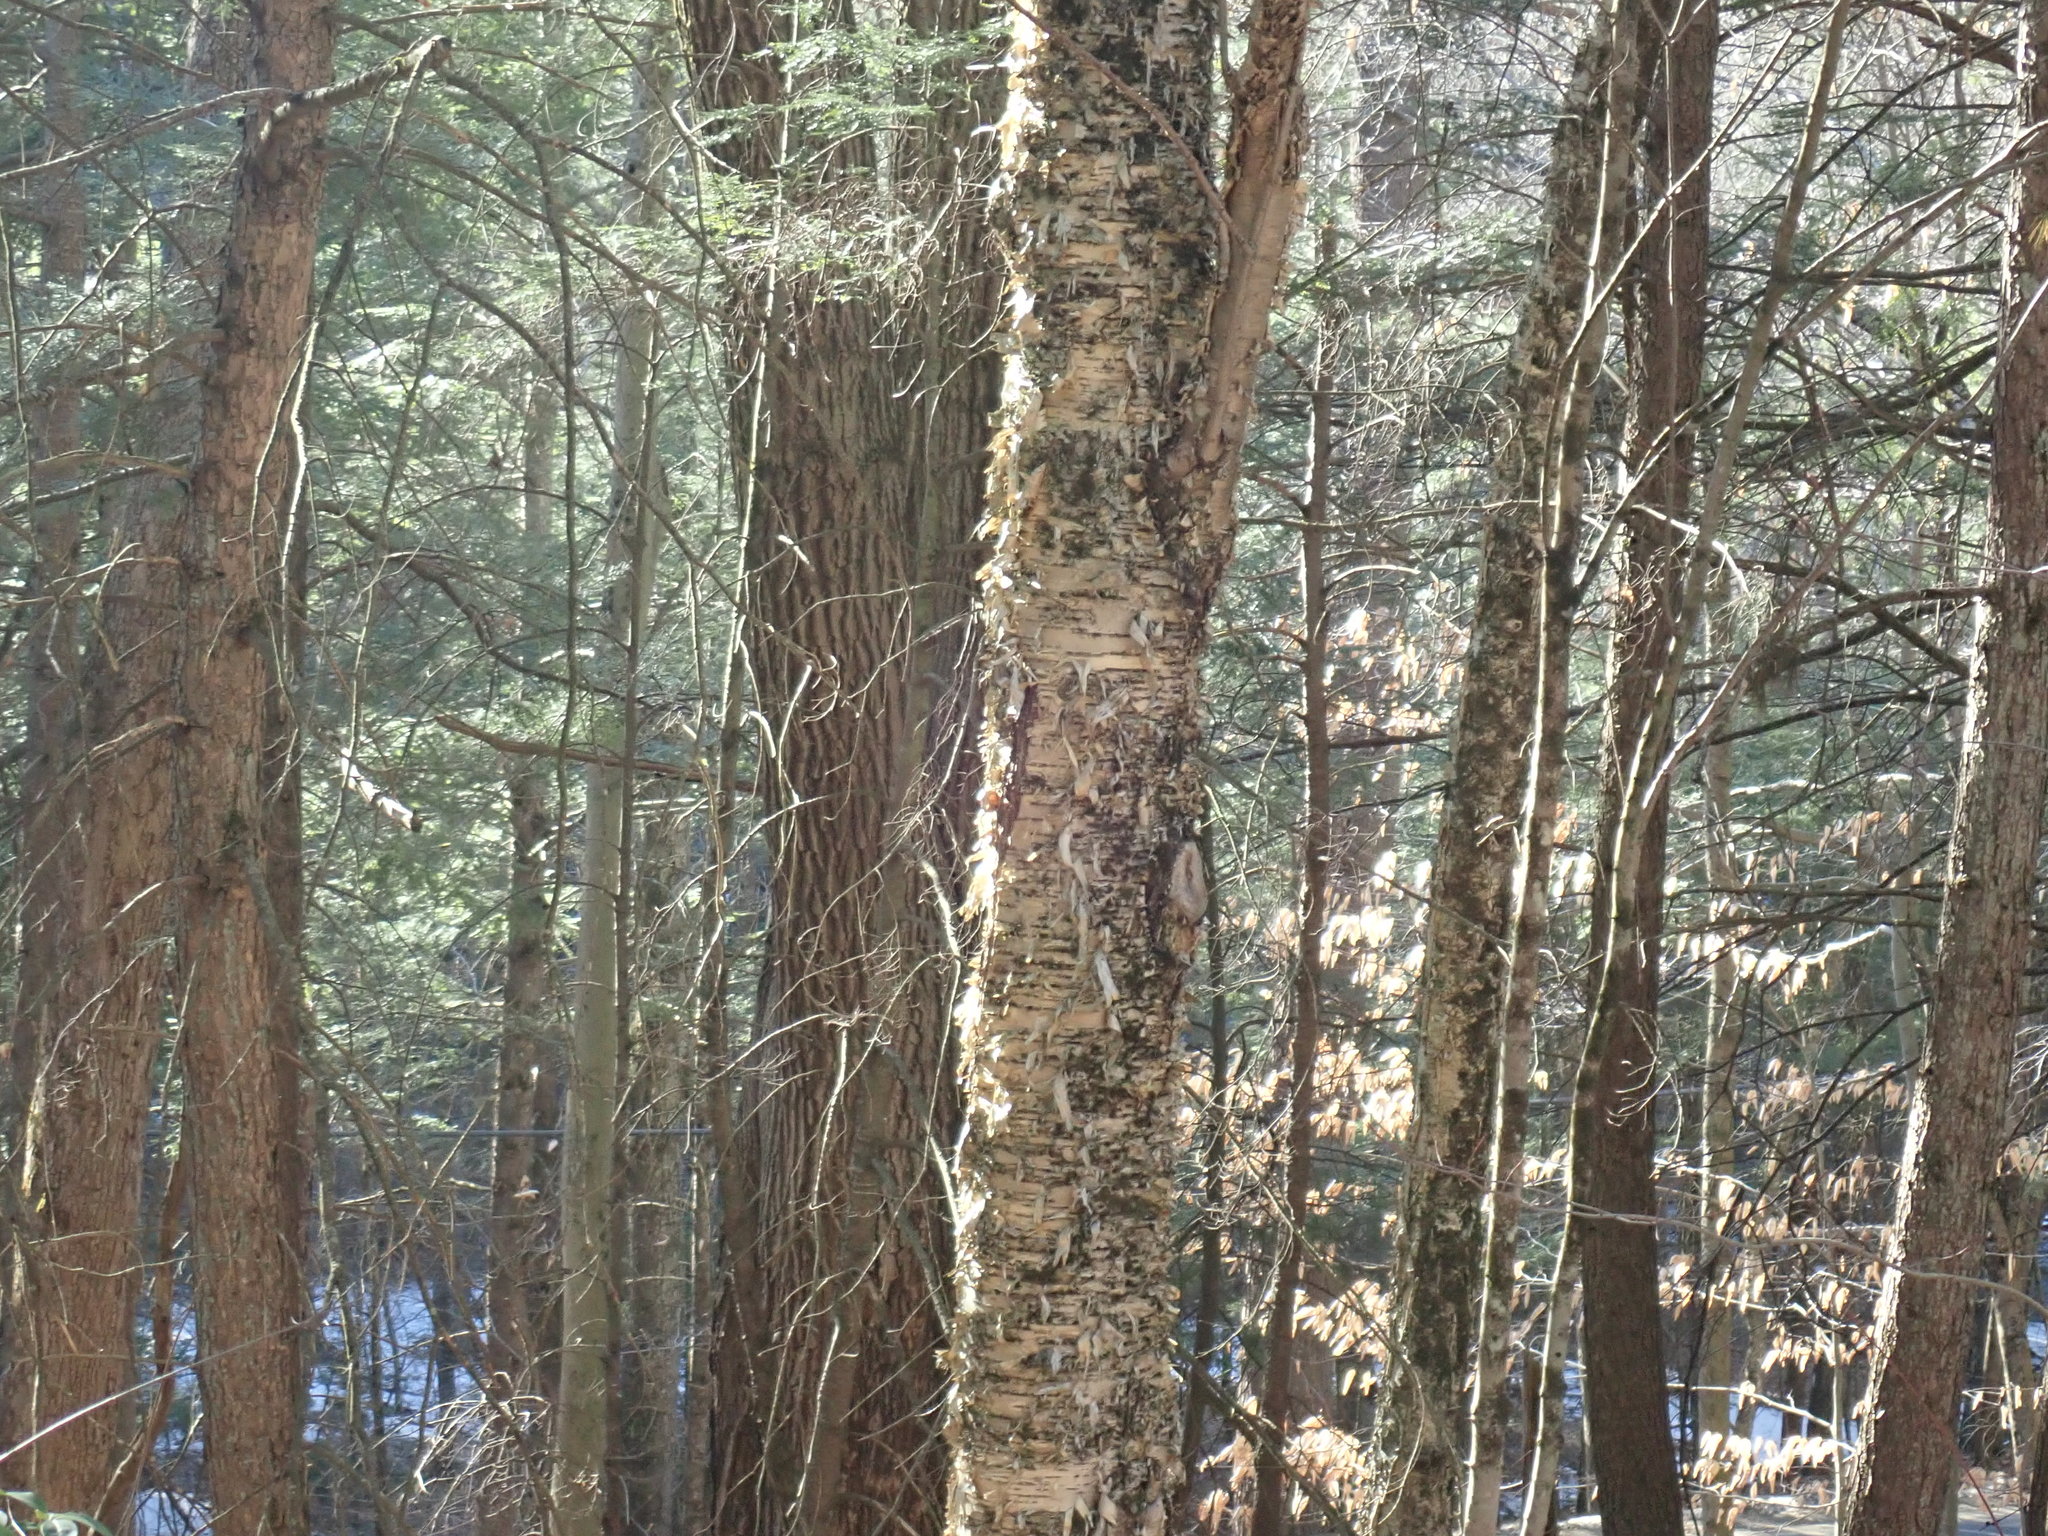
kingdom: Plantae
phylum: Tracheophyta
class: Magnoliopsida
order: Fagales
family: Betulaceae
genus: Betula
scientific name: Betula alleghaniensis
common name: Yellow birch
